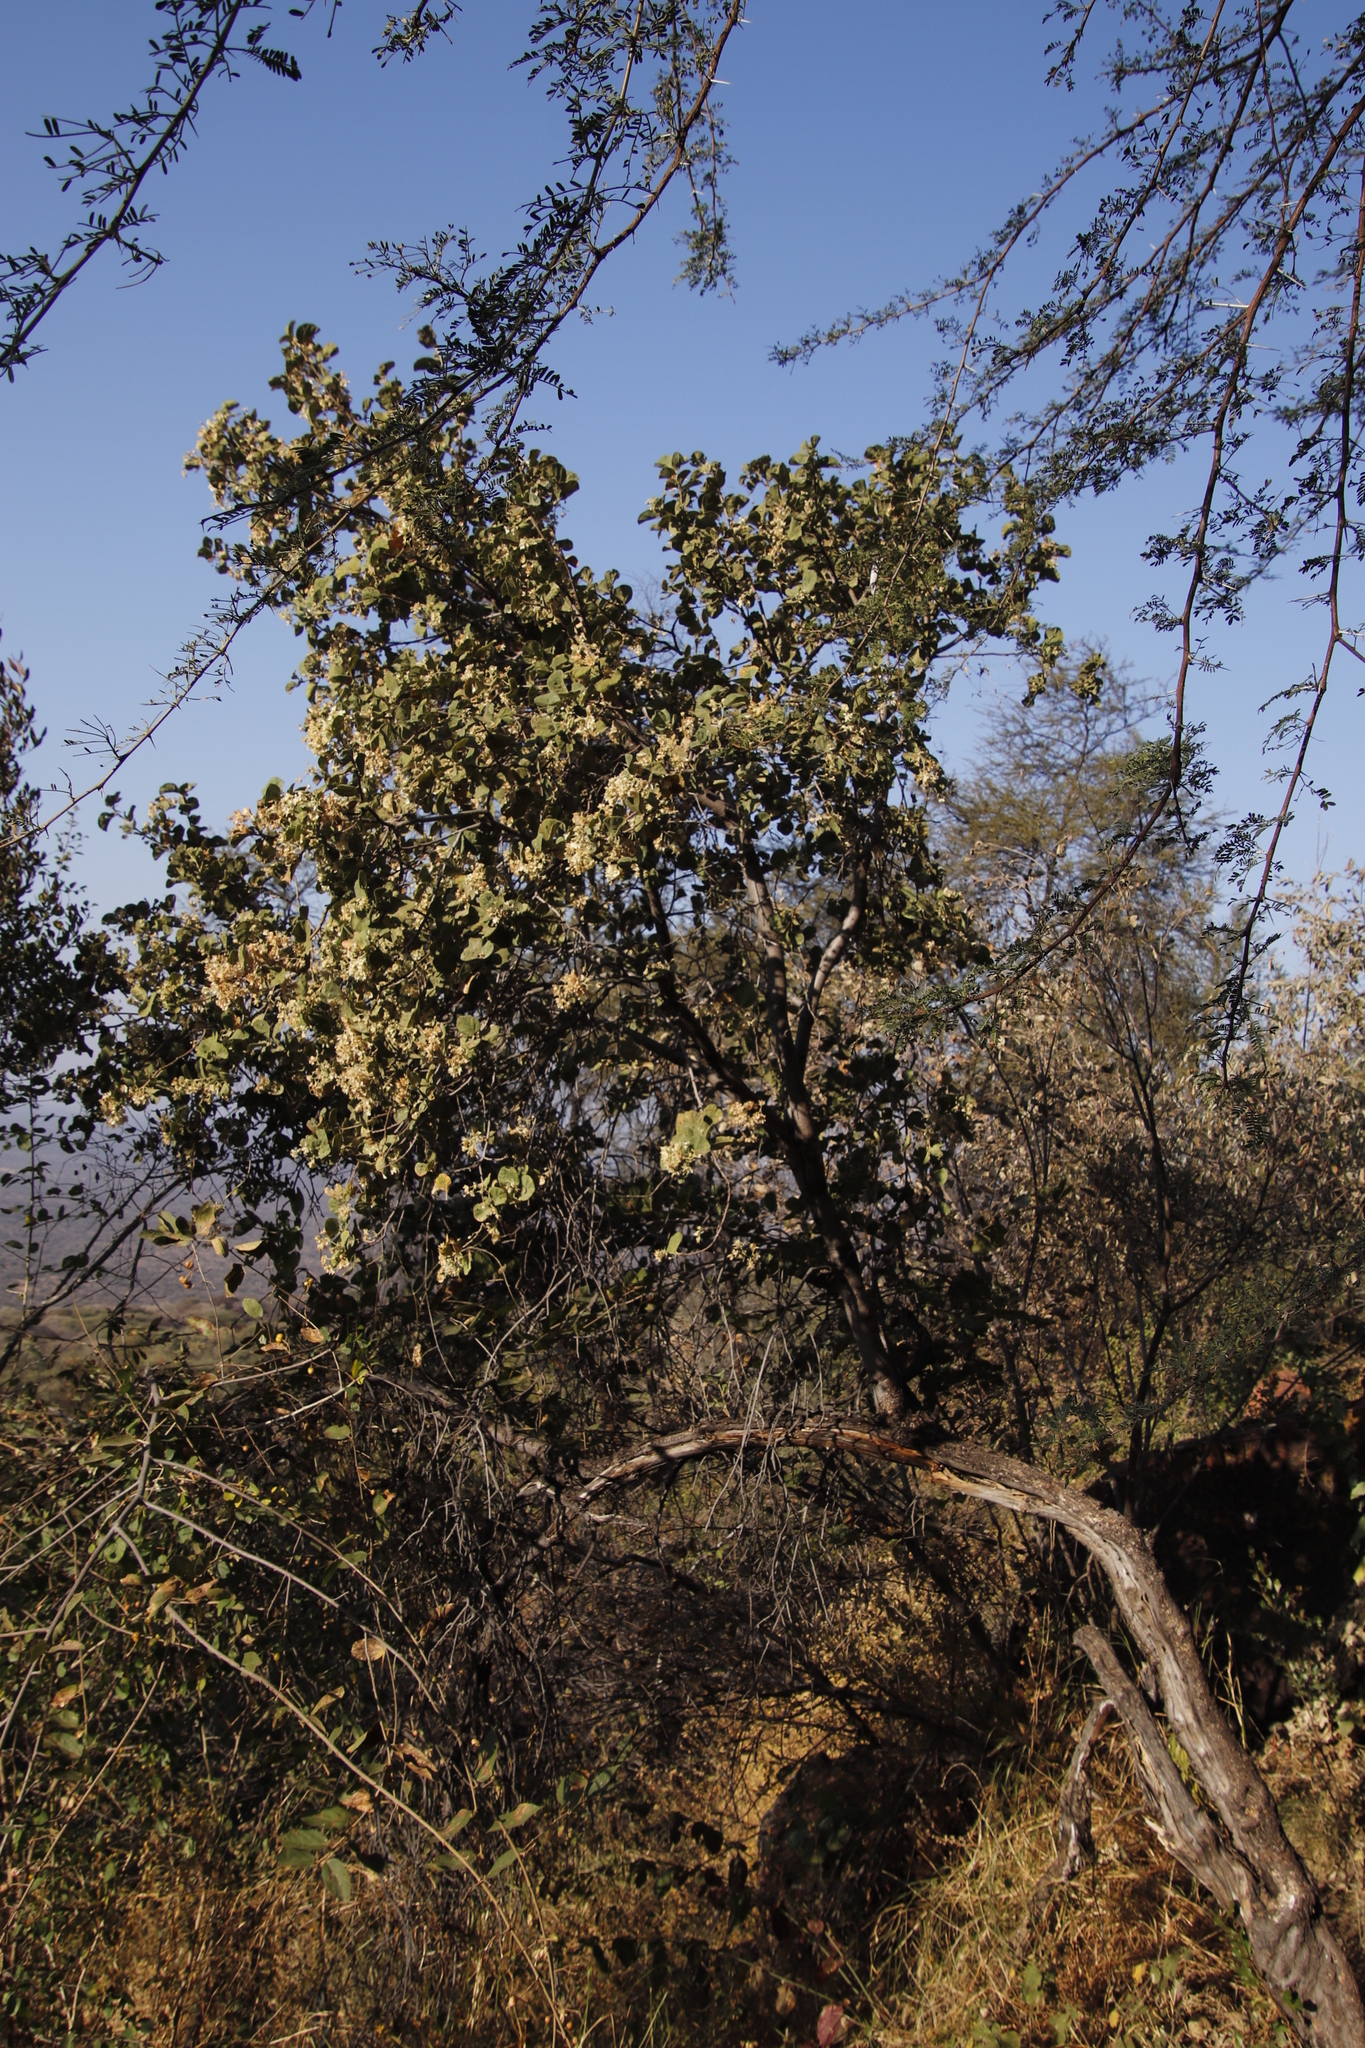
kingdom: Plantae
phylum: Tracheophyta
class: Magnoliopsida
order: Malvales
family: Malvaceae
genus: Dombeya
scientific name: Dombeya rotundifolia
